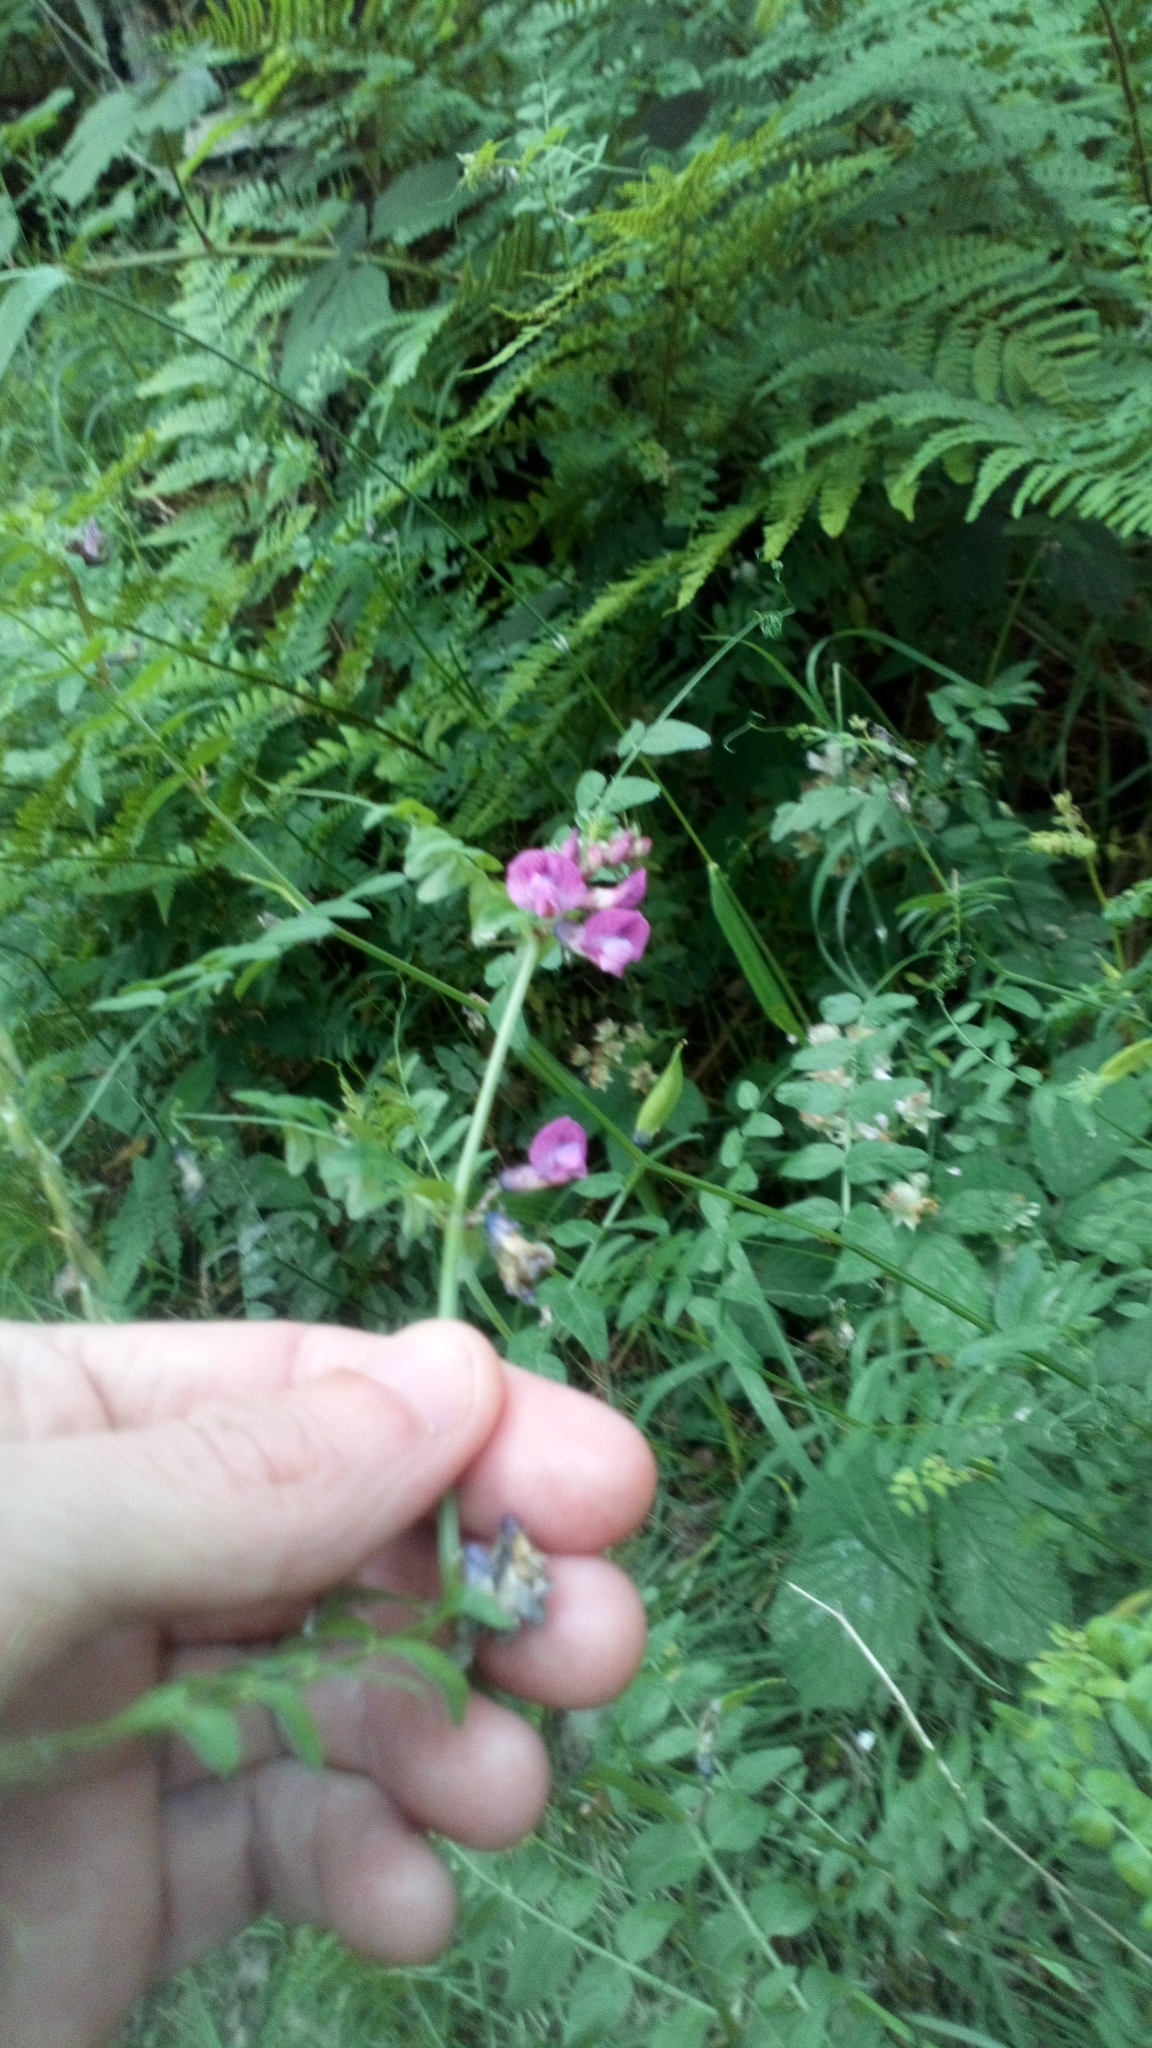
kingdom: Plantae
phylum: Tracheophyta
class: Magnoliopsida
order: Fabales
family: Fabaceae
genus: Vicia
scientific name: Vicia sepium
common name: Bush vetch
